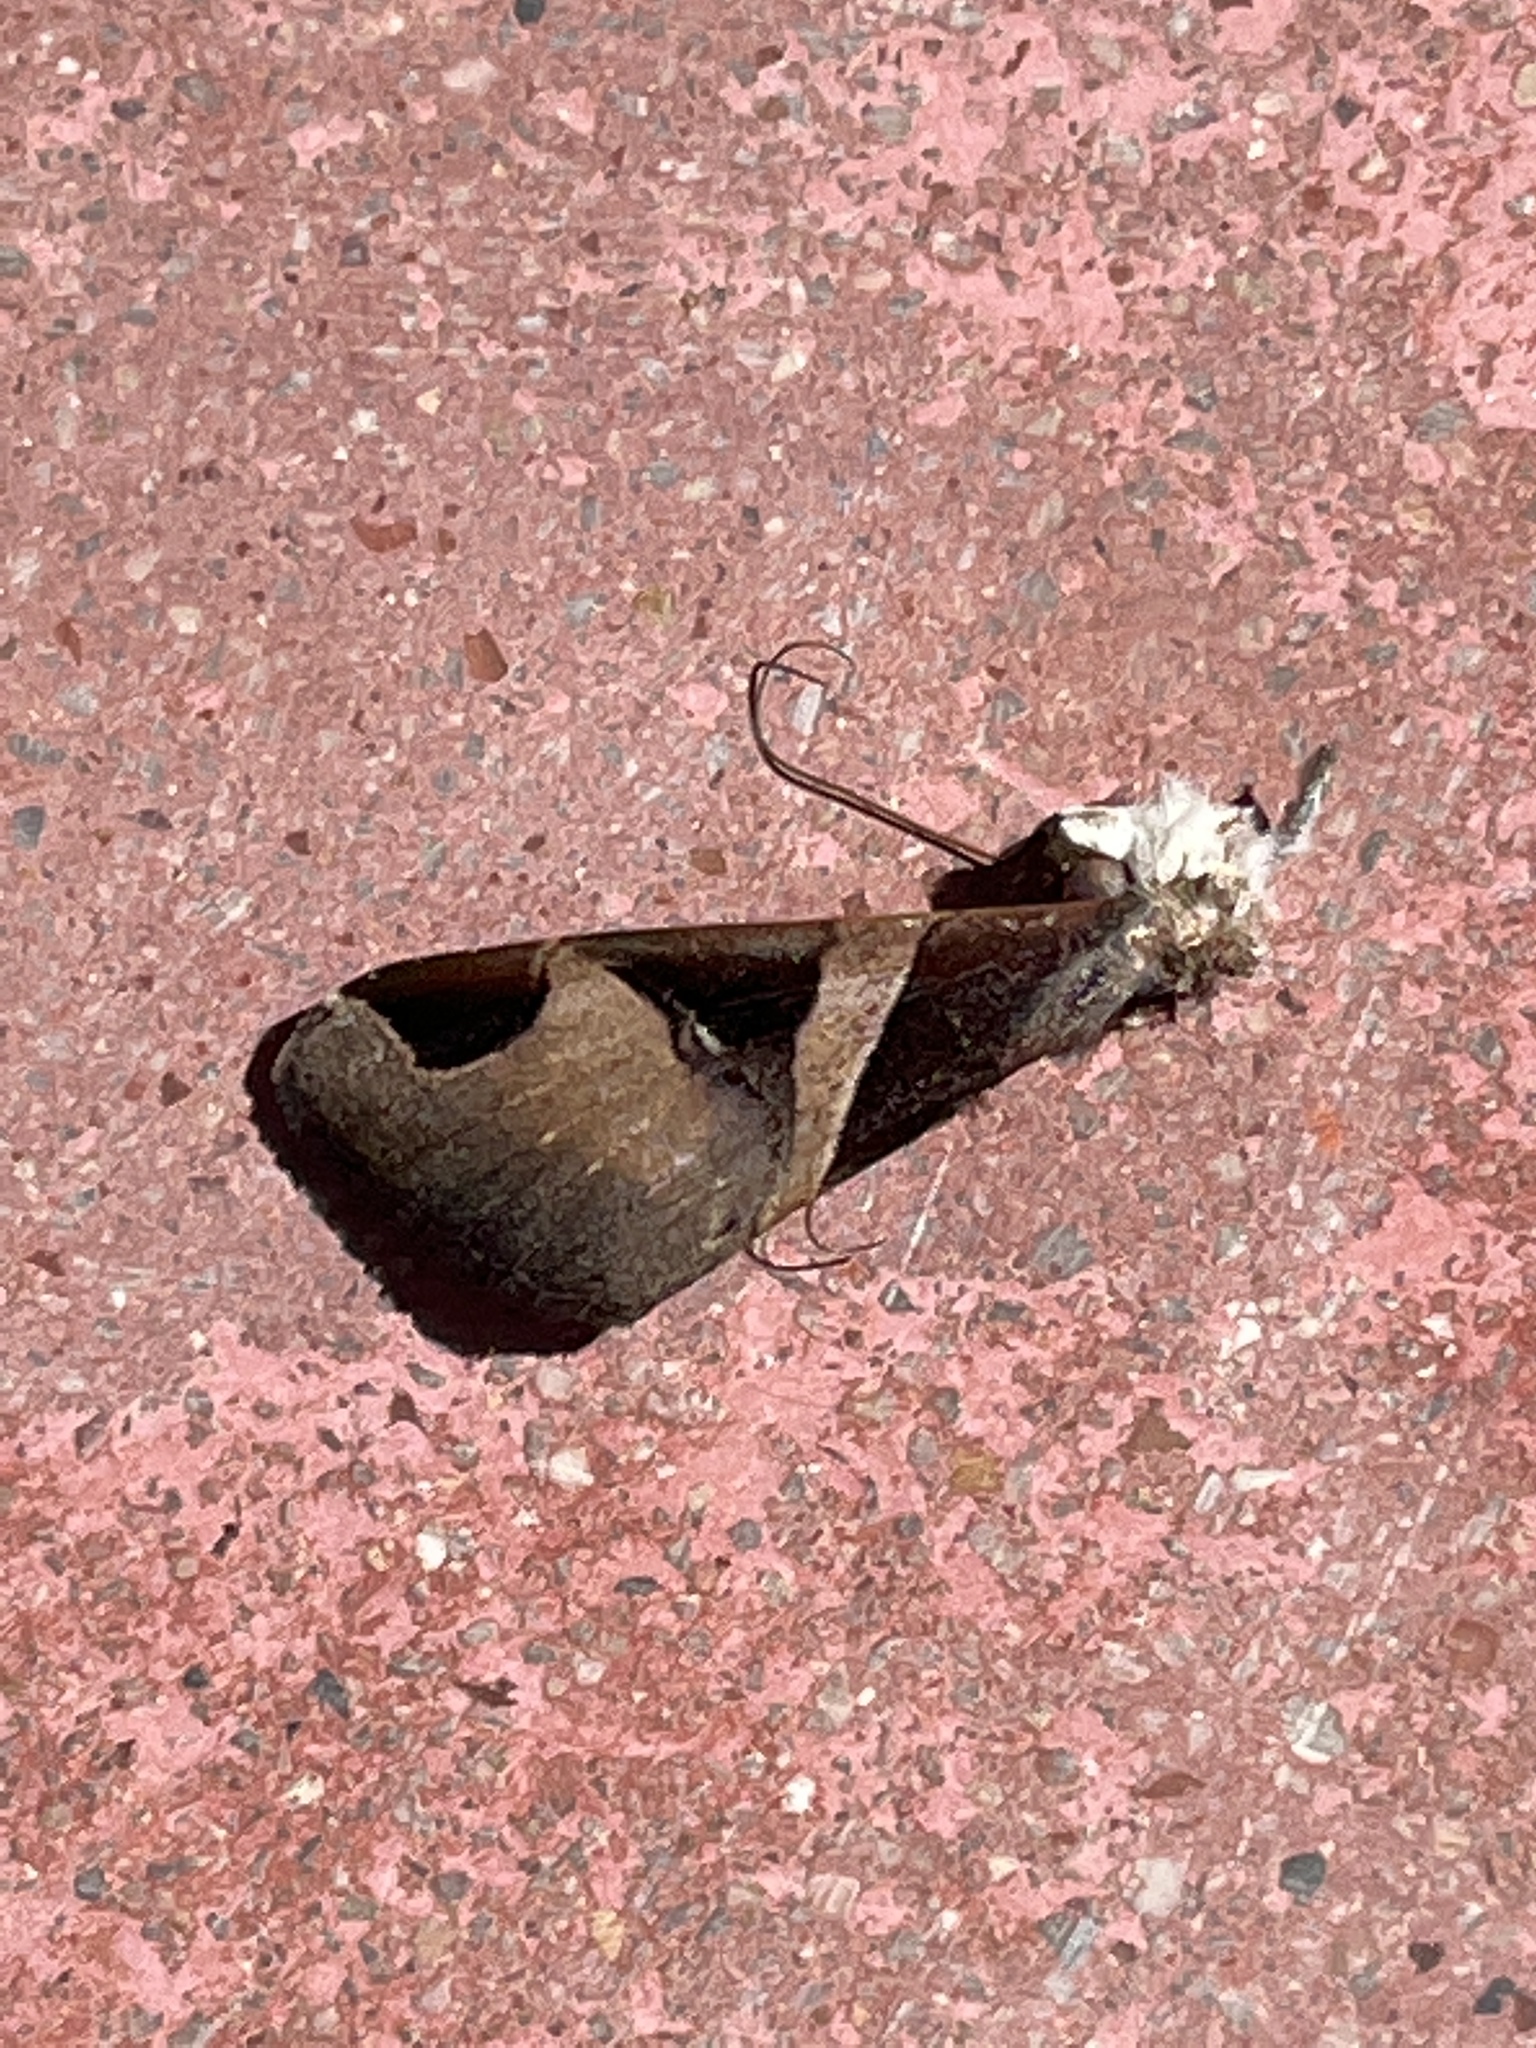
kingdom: Animalia
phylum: Arthropoda
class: Insecta
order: Lepidoptera
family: Erebidae
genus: Melipotis
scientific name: Melipotis fasciolaris
